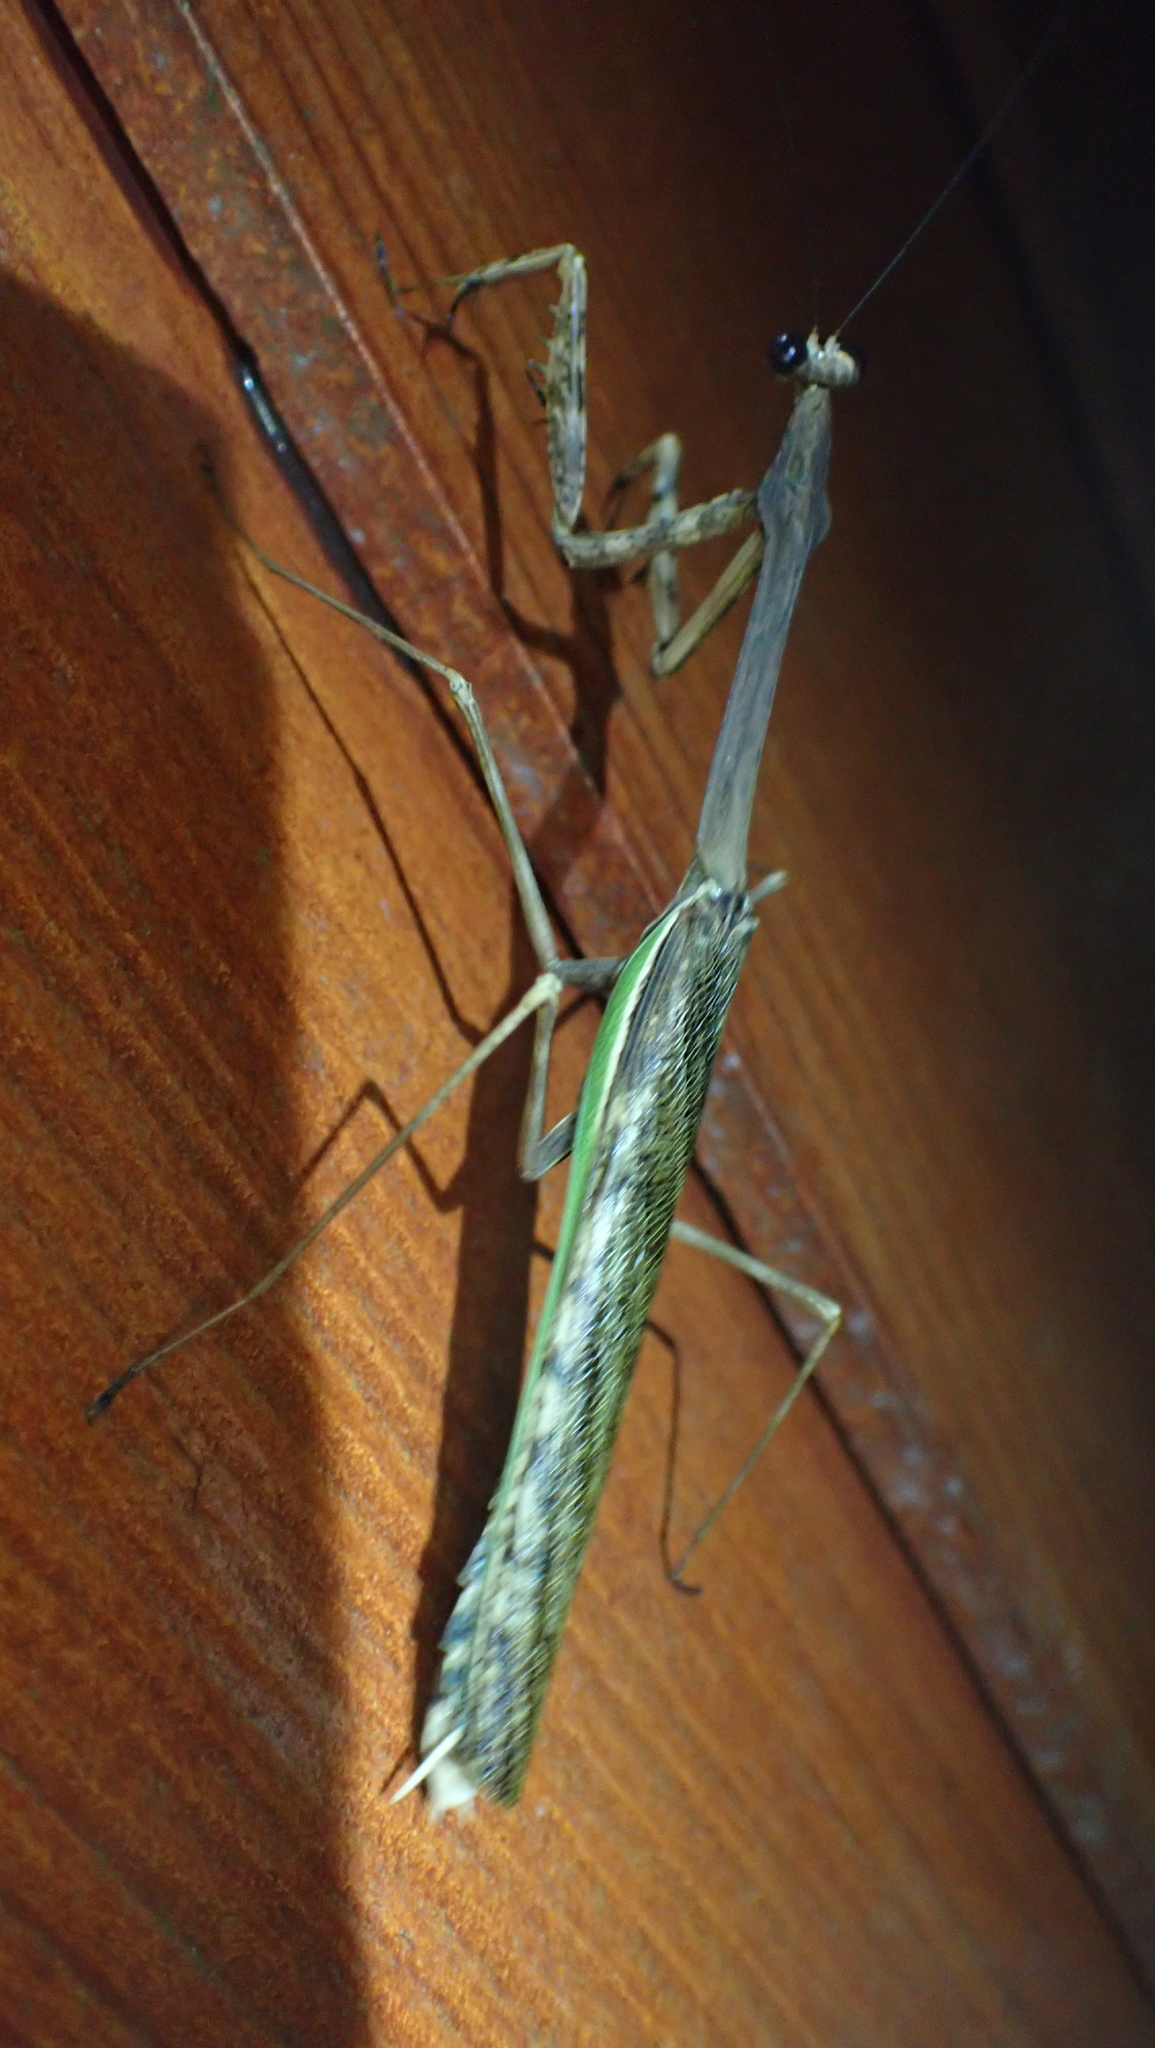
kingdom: Animalia
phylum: Arthropoda
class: Insecta
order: Mantodea
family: Mantidae
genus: Tauromantis
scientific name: Tauromantis championi
